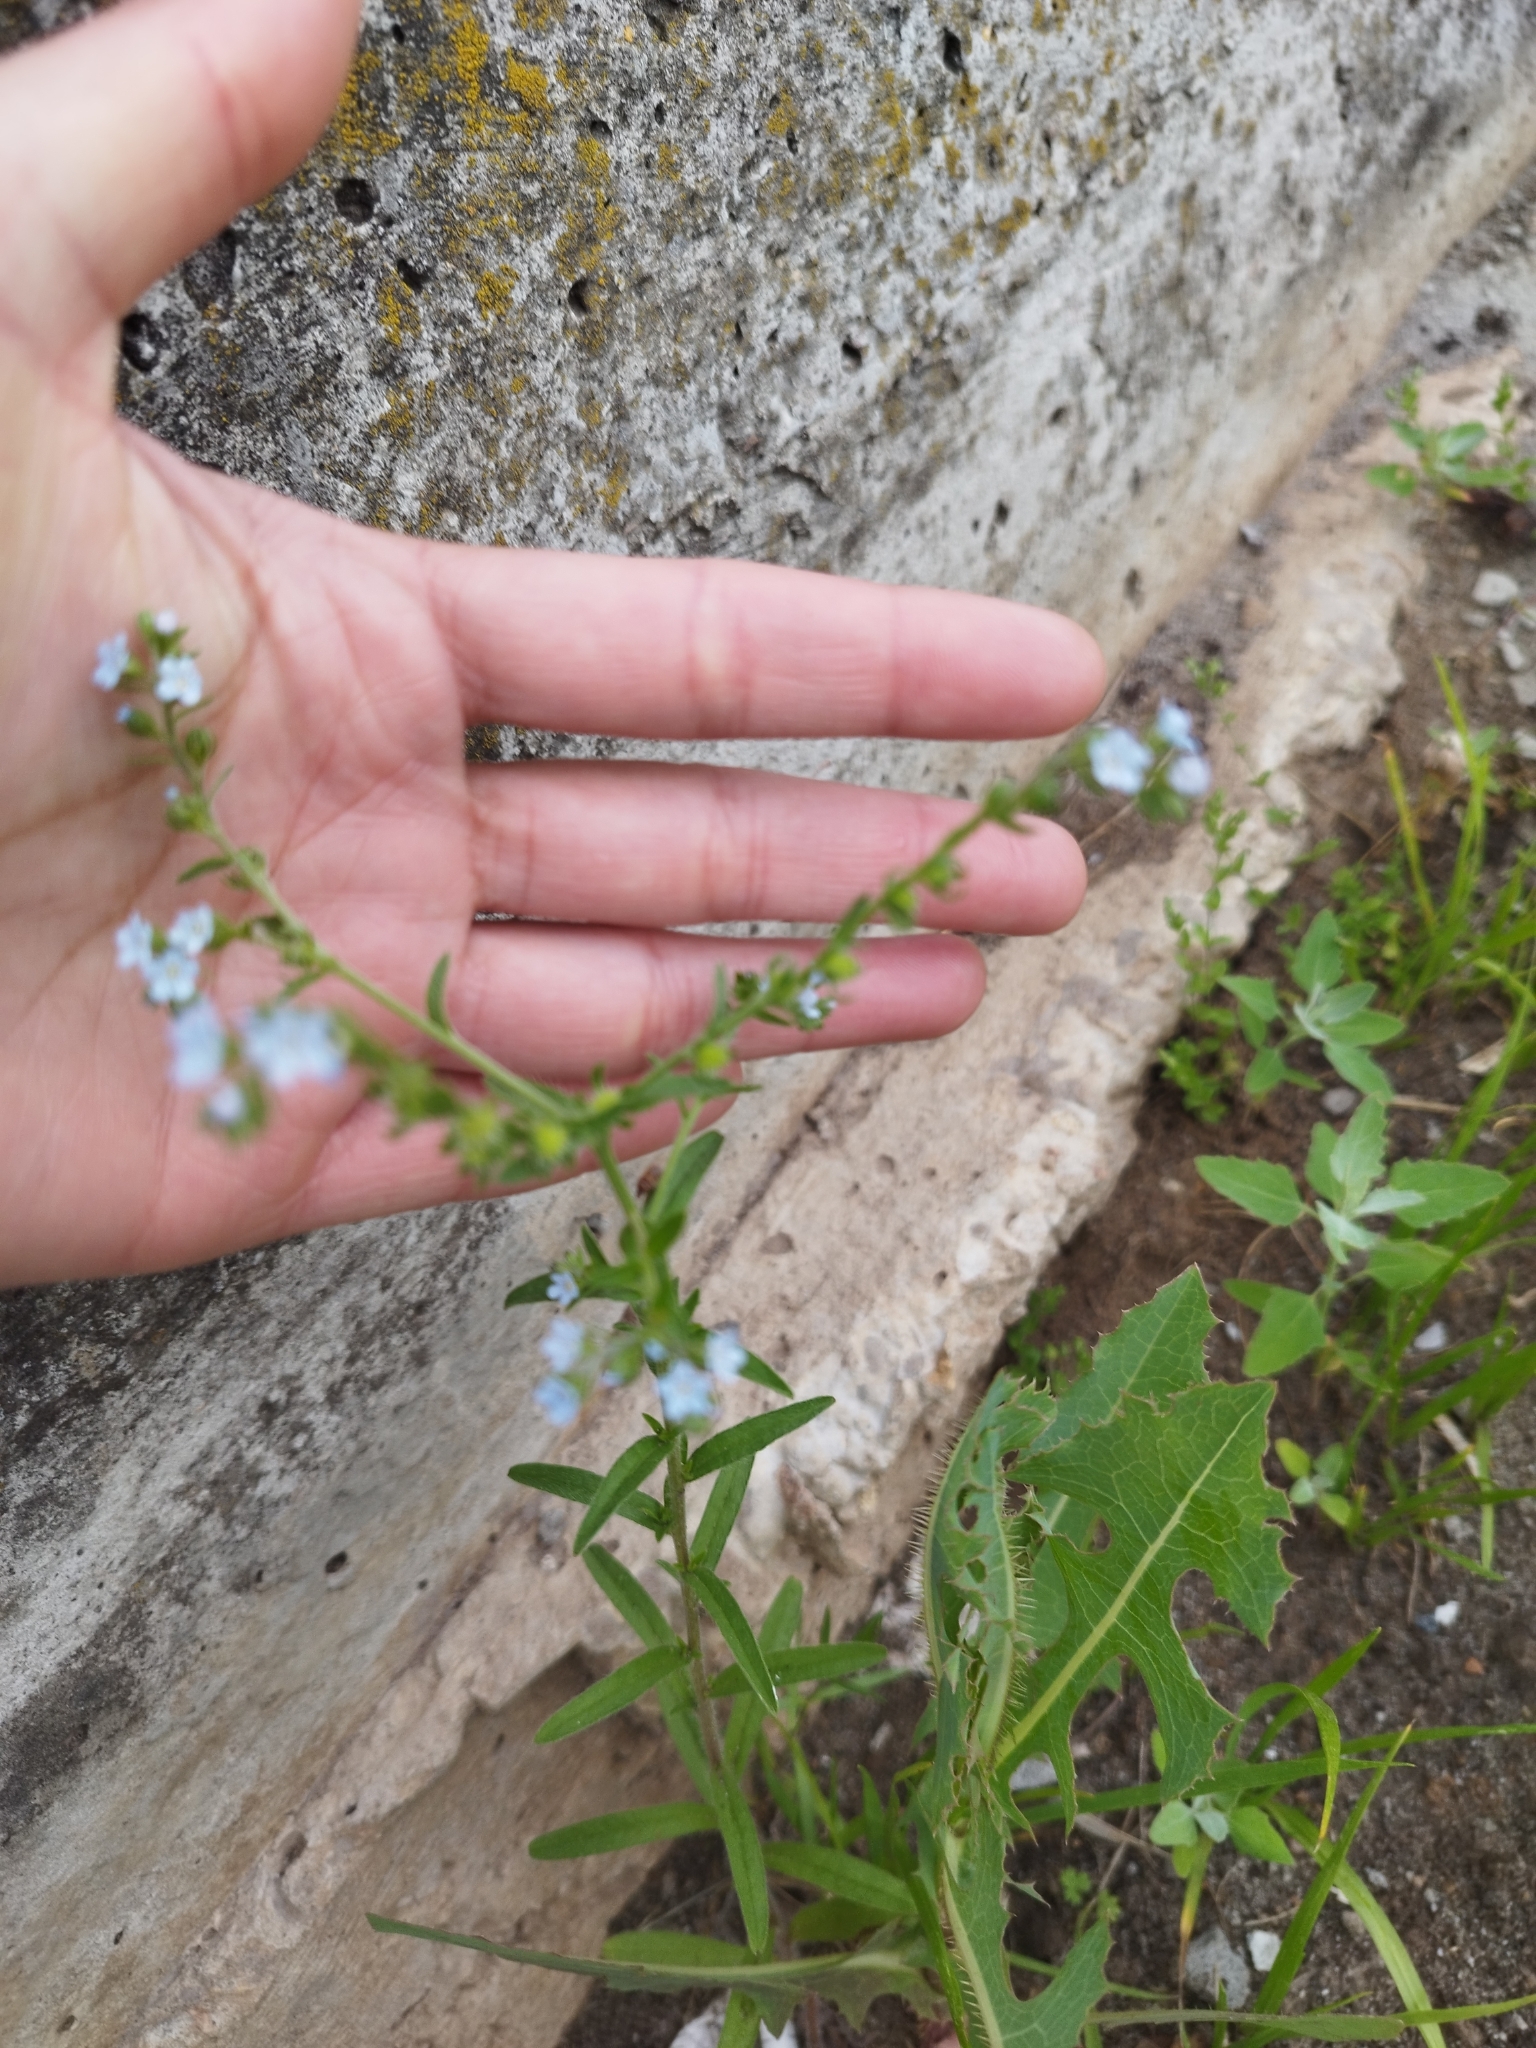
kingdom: Plantae
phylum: Tracheophyta
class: Magnoliopsida
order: Boraginales
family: Boraginaceae
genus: Lappula
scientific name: Lappula squarrosa
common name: European stickseed
